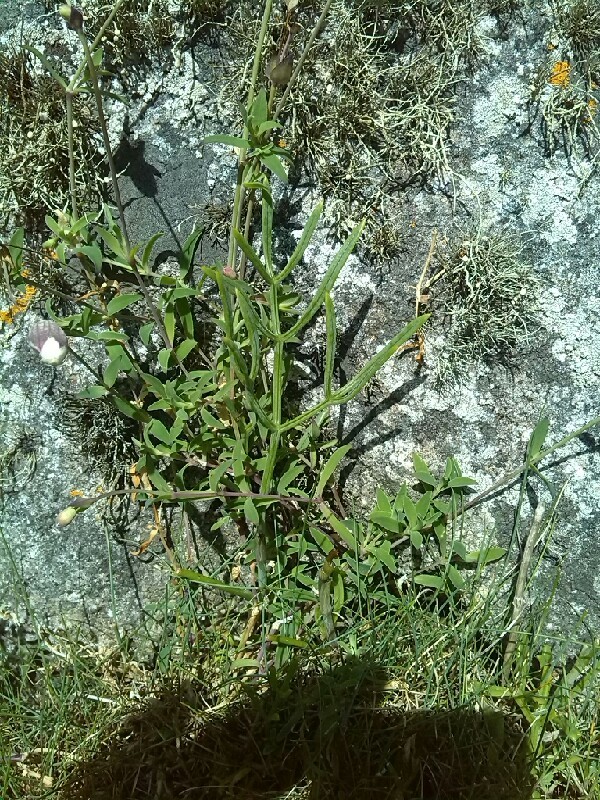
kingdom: Plantae
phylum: Tracheophyta
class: Magnoliopsida
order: Apiales
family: Apiaceae
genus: Crithmum
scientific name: Crithmum maritimum
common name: Rock samphire
